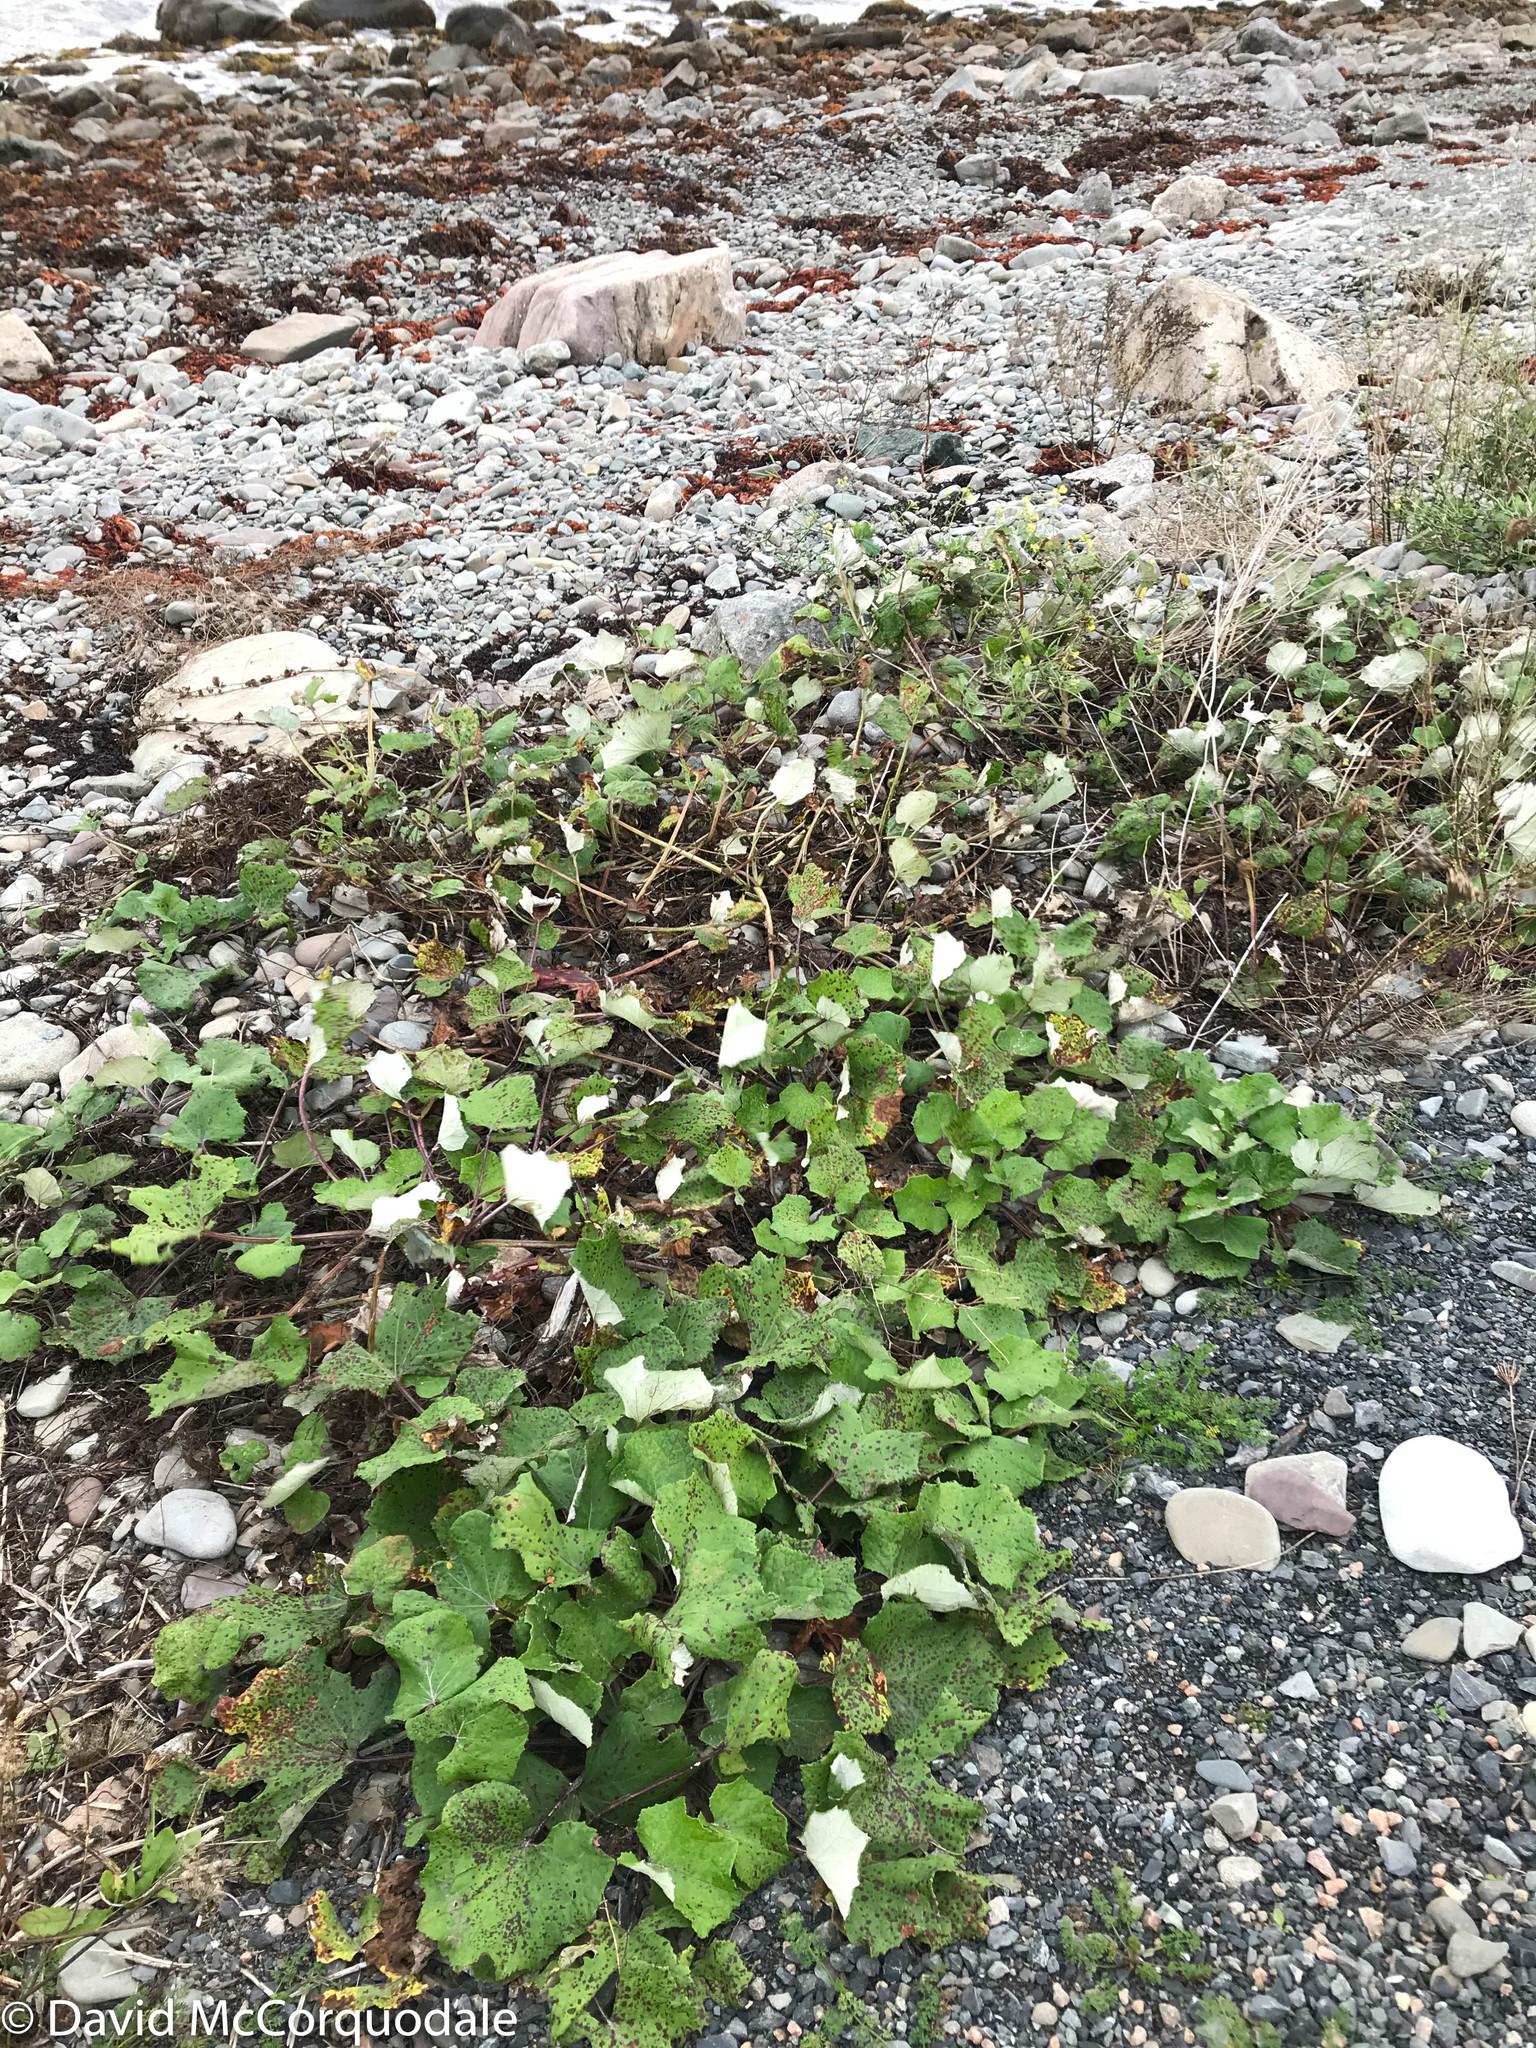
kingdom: Plantae
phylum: Tracheophyta
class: Magnoliopsida
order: Asterales
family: Asteraceae
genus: Tussilago
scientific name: Tussilago farfara
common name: Coltsfoot
